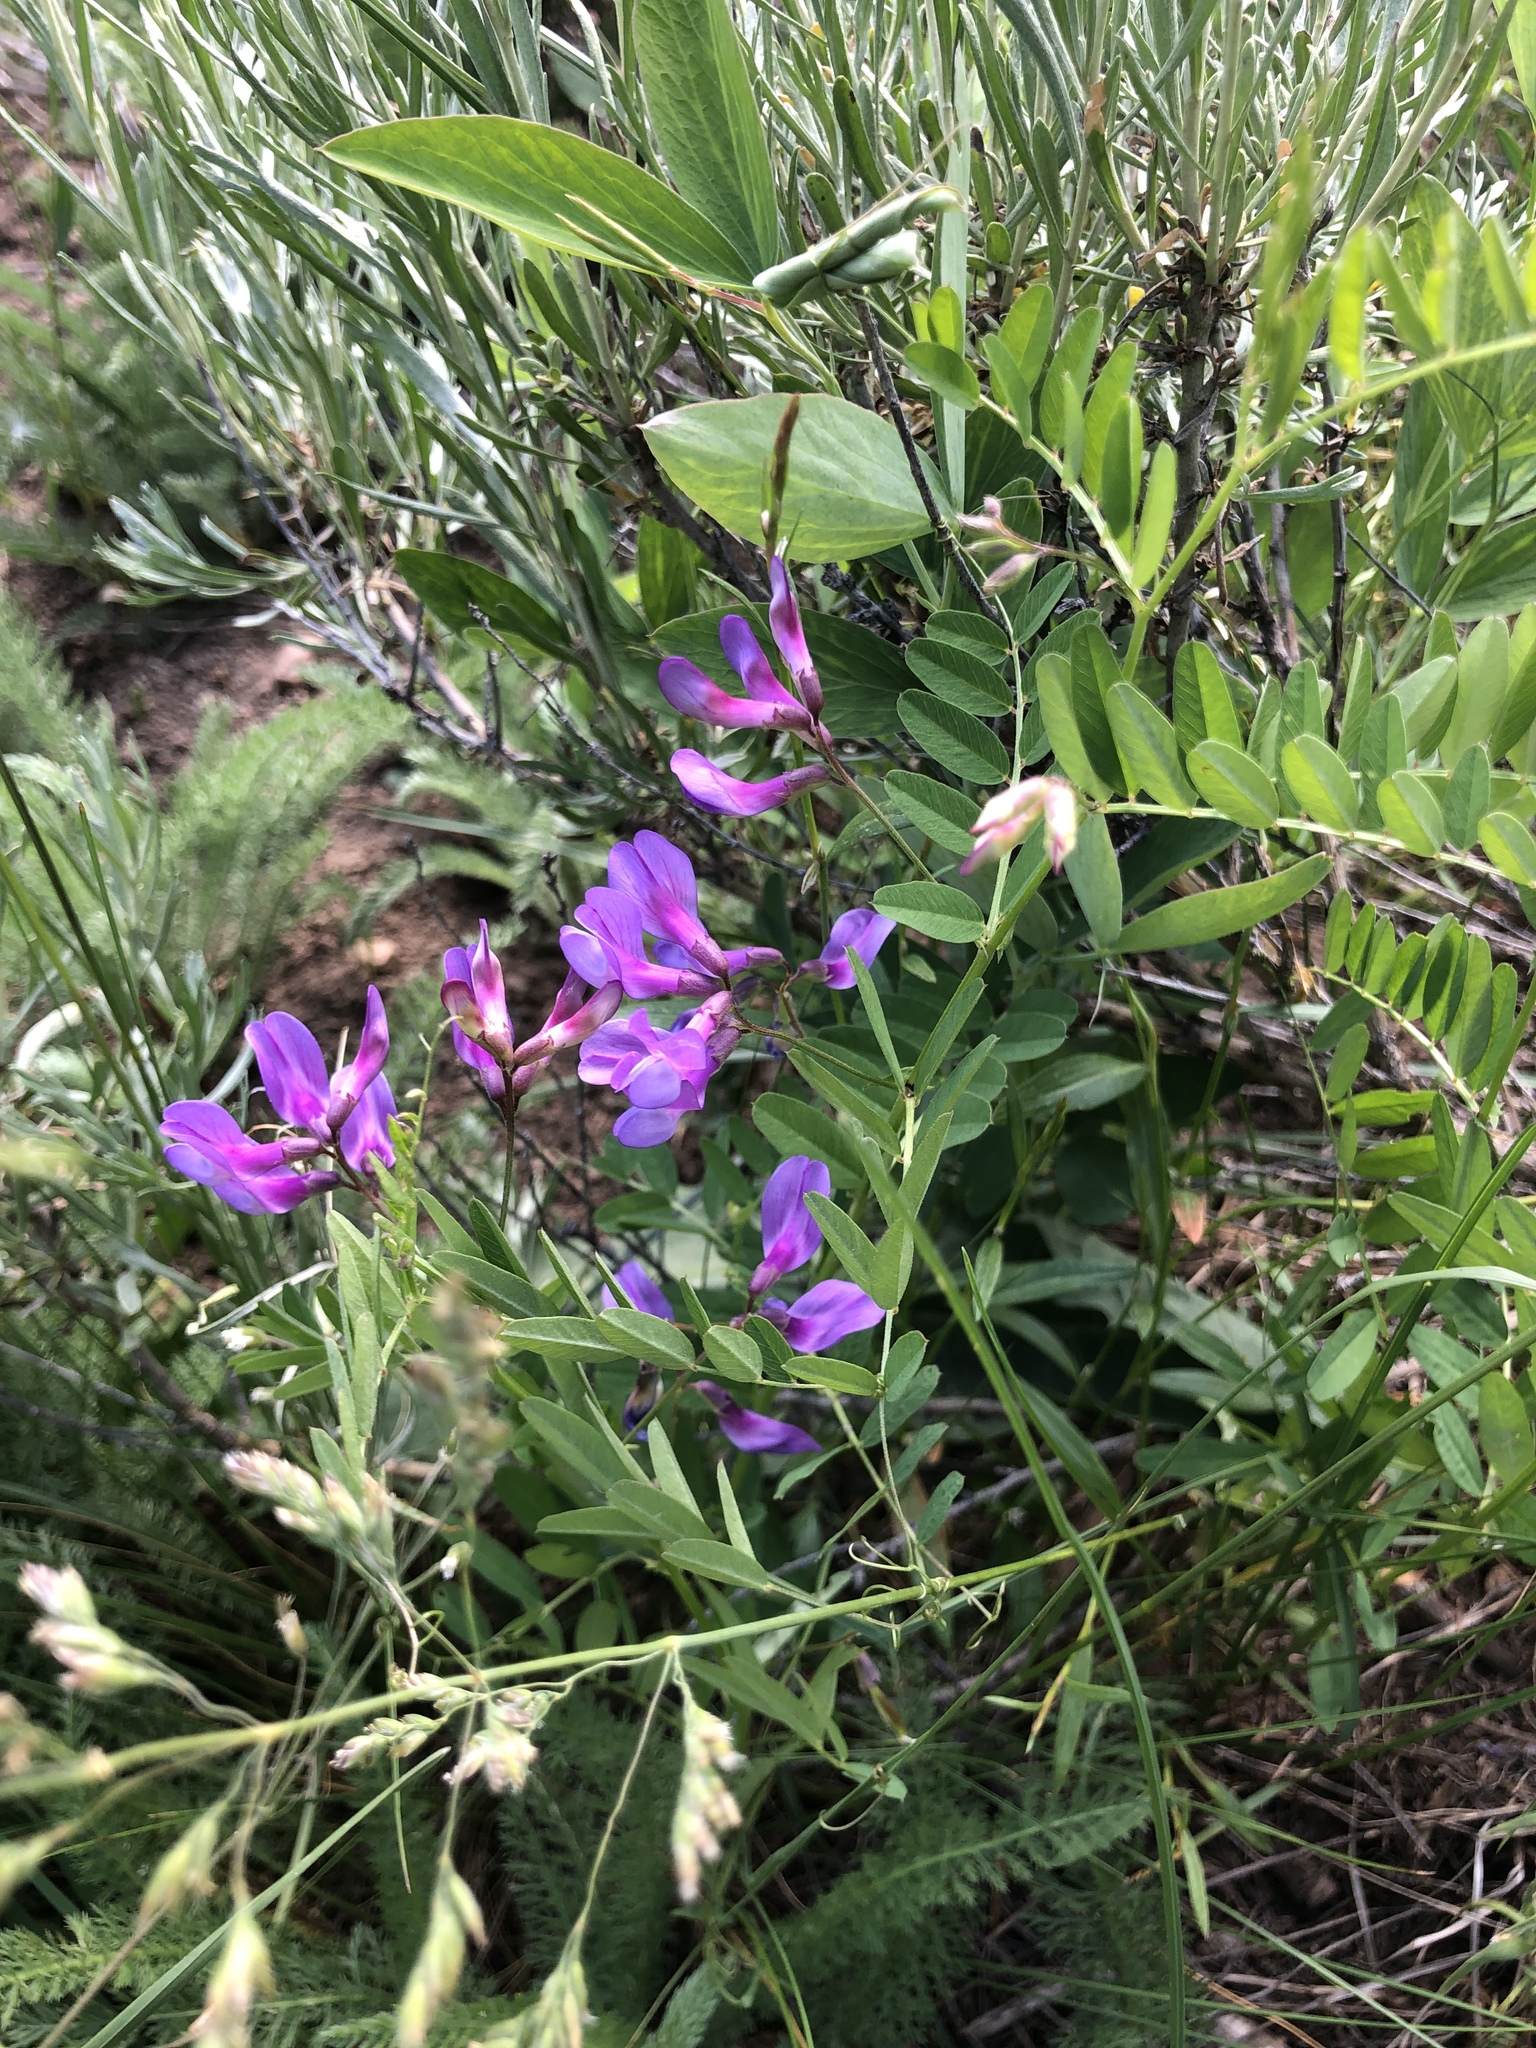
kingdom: Plantae
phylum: Tracheophyta
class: Magnoliopsida
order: Fabales
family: Fabaceae
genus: Vicia
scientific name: Vicia americana
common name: American vetch
